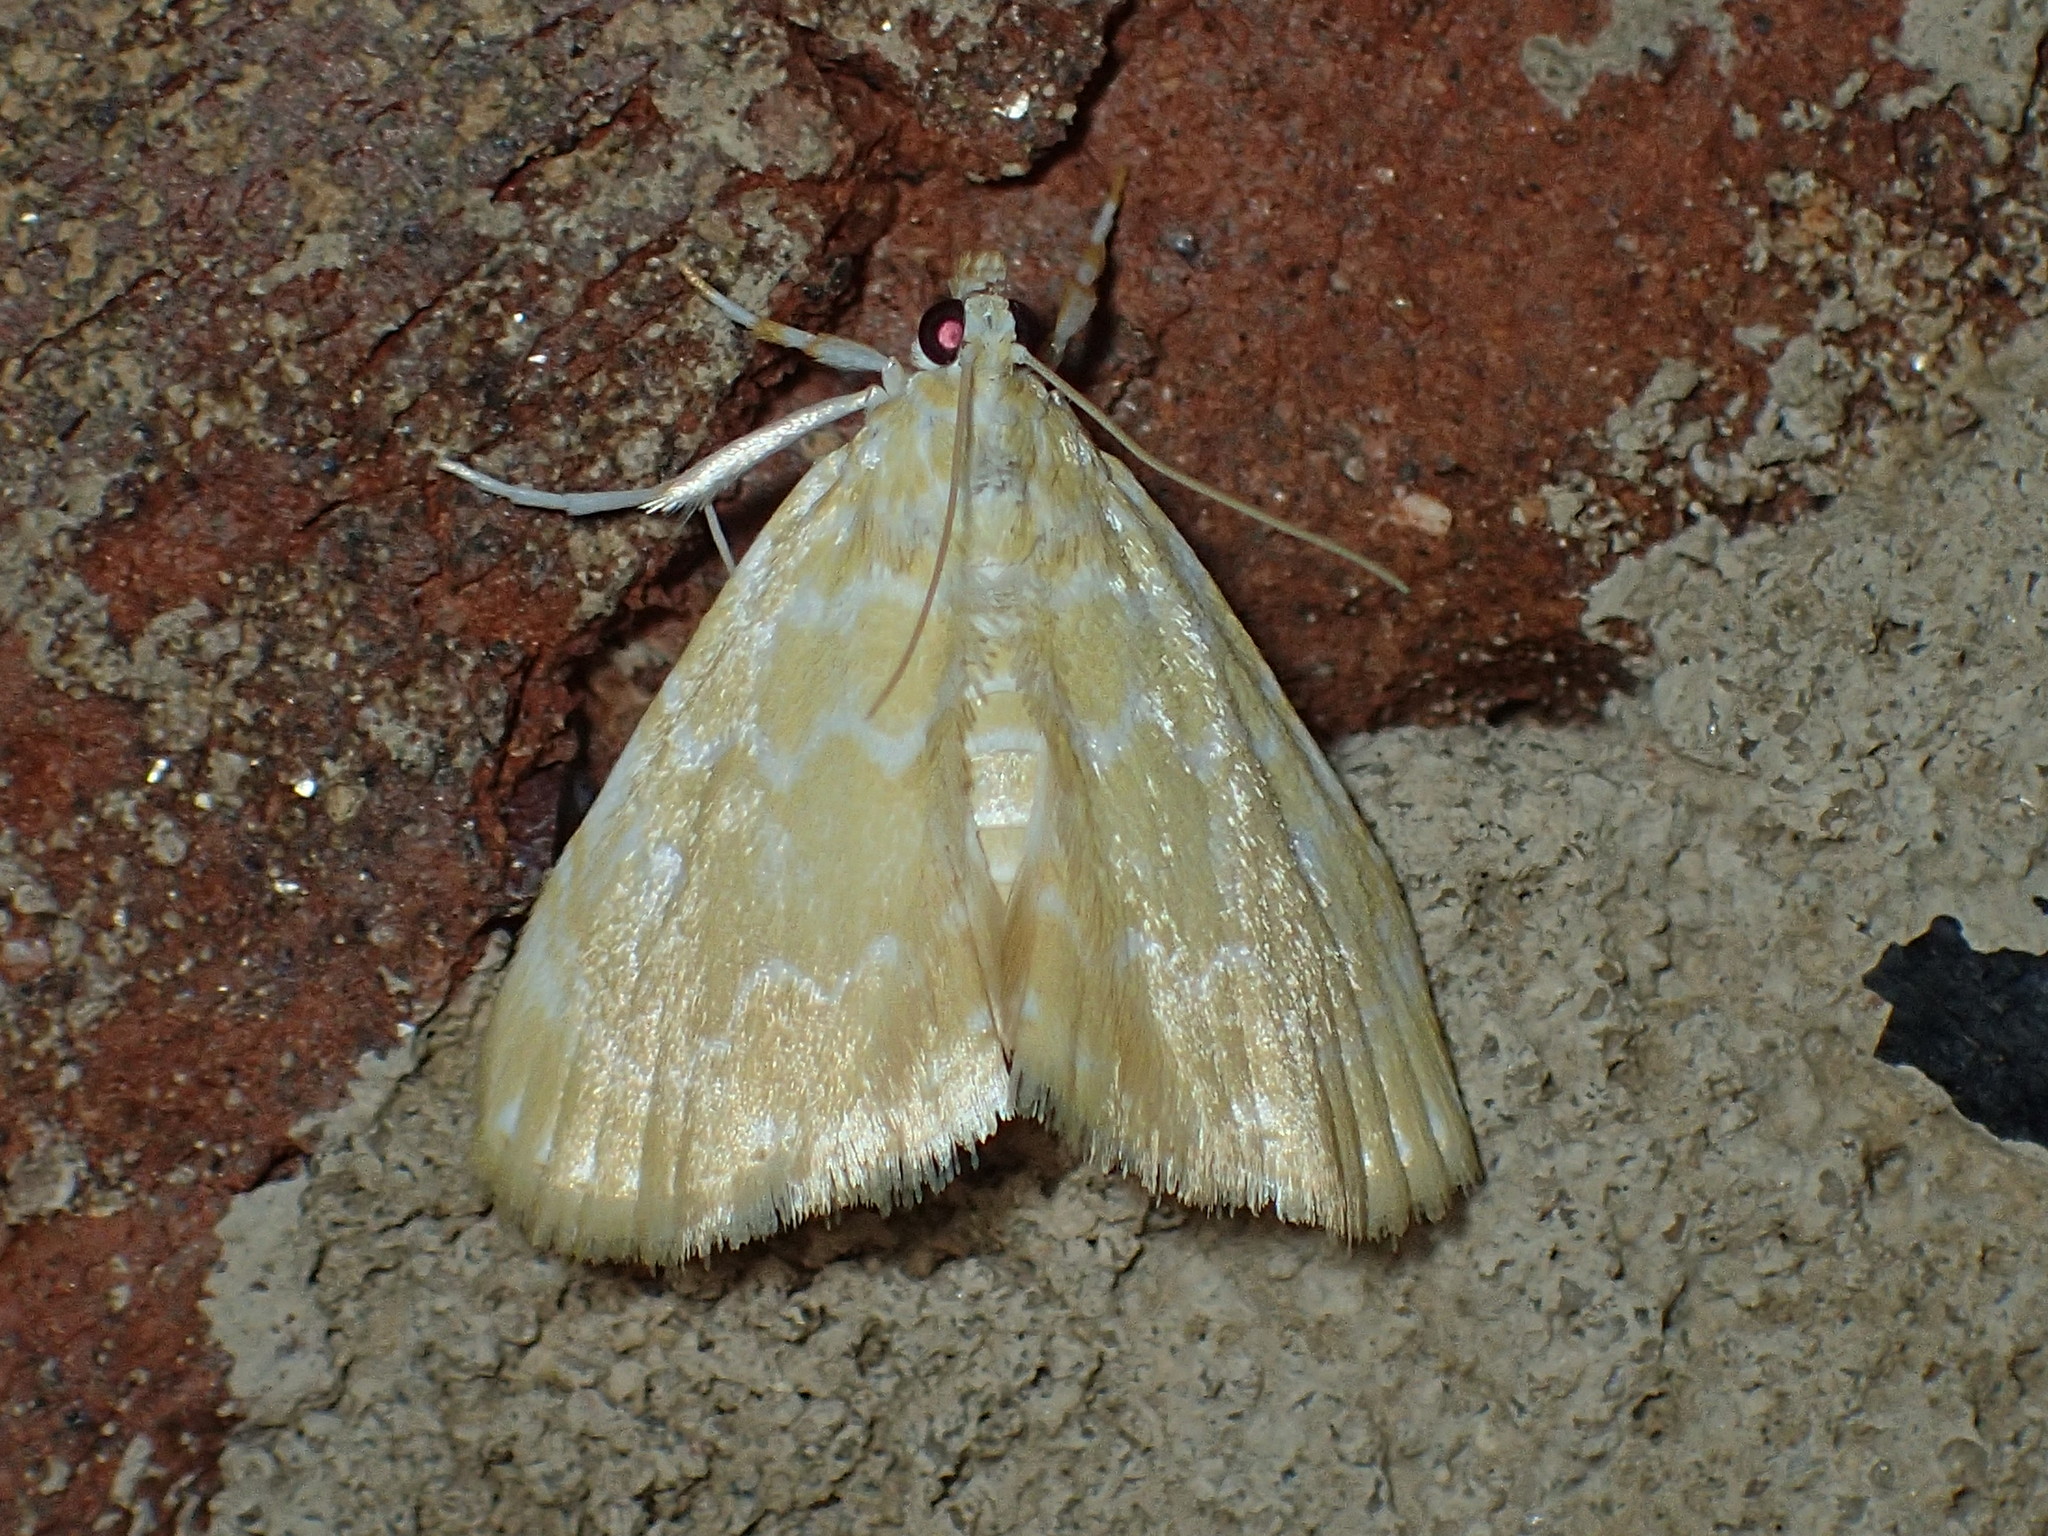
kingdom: Animalia
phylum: Arthropoda
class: Insecta
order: Lepidoptera
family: Crambidae
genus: Glaphyria
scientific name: Glaphyria glaphyralis
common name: Common glaphyria moth
